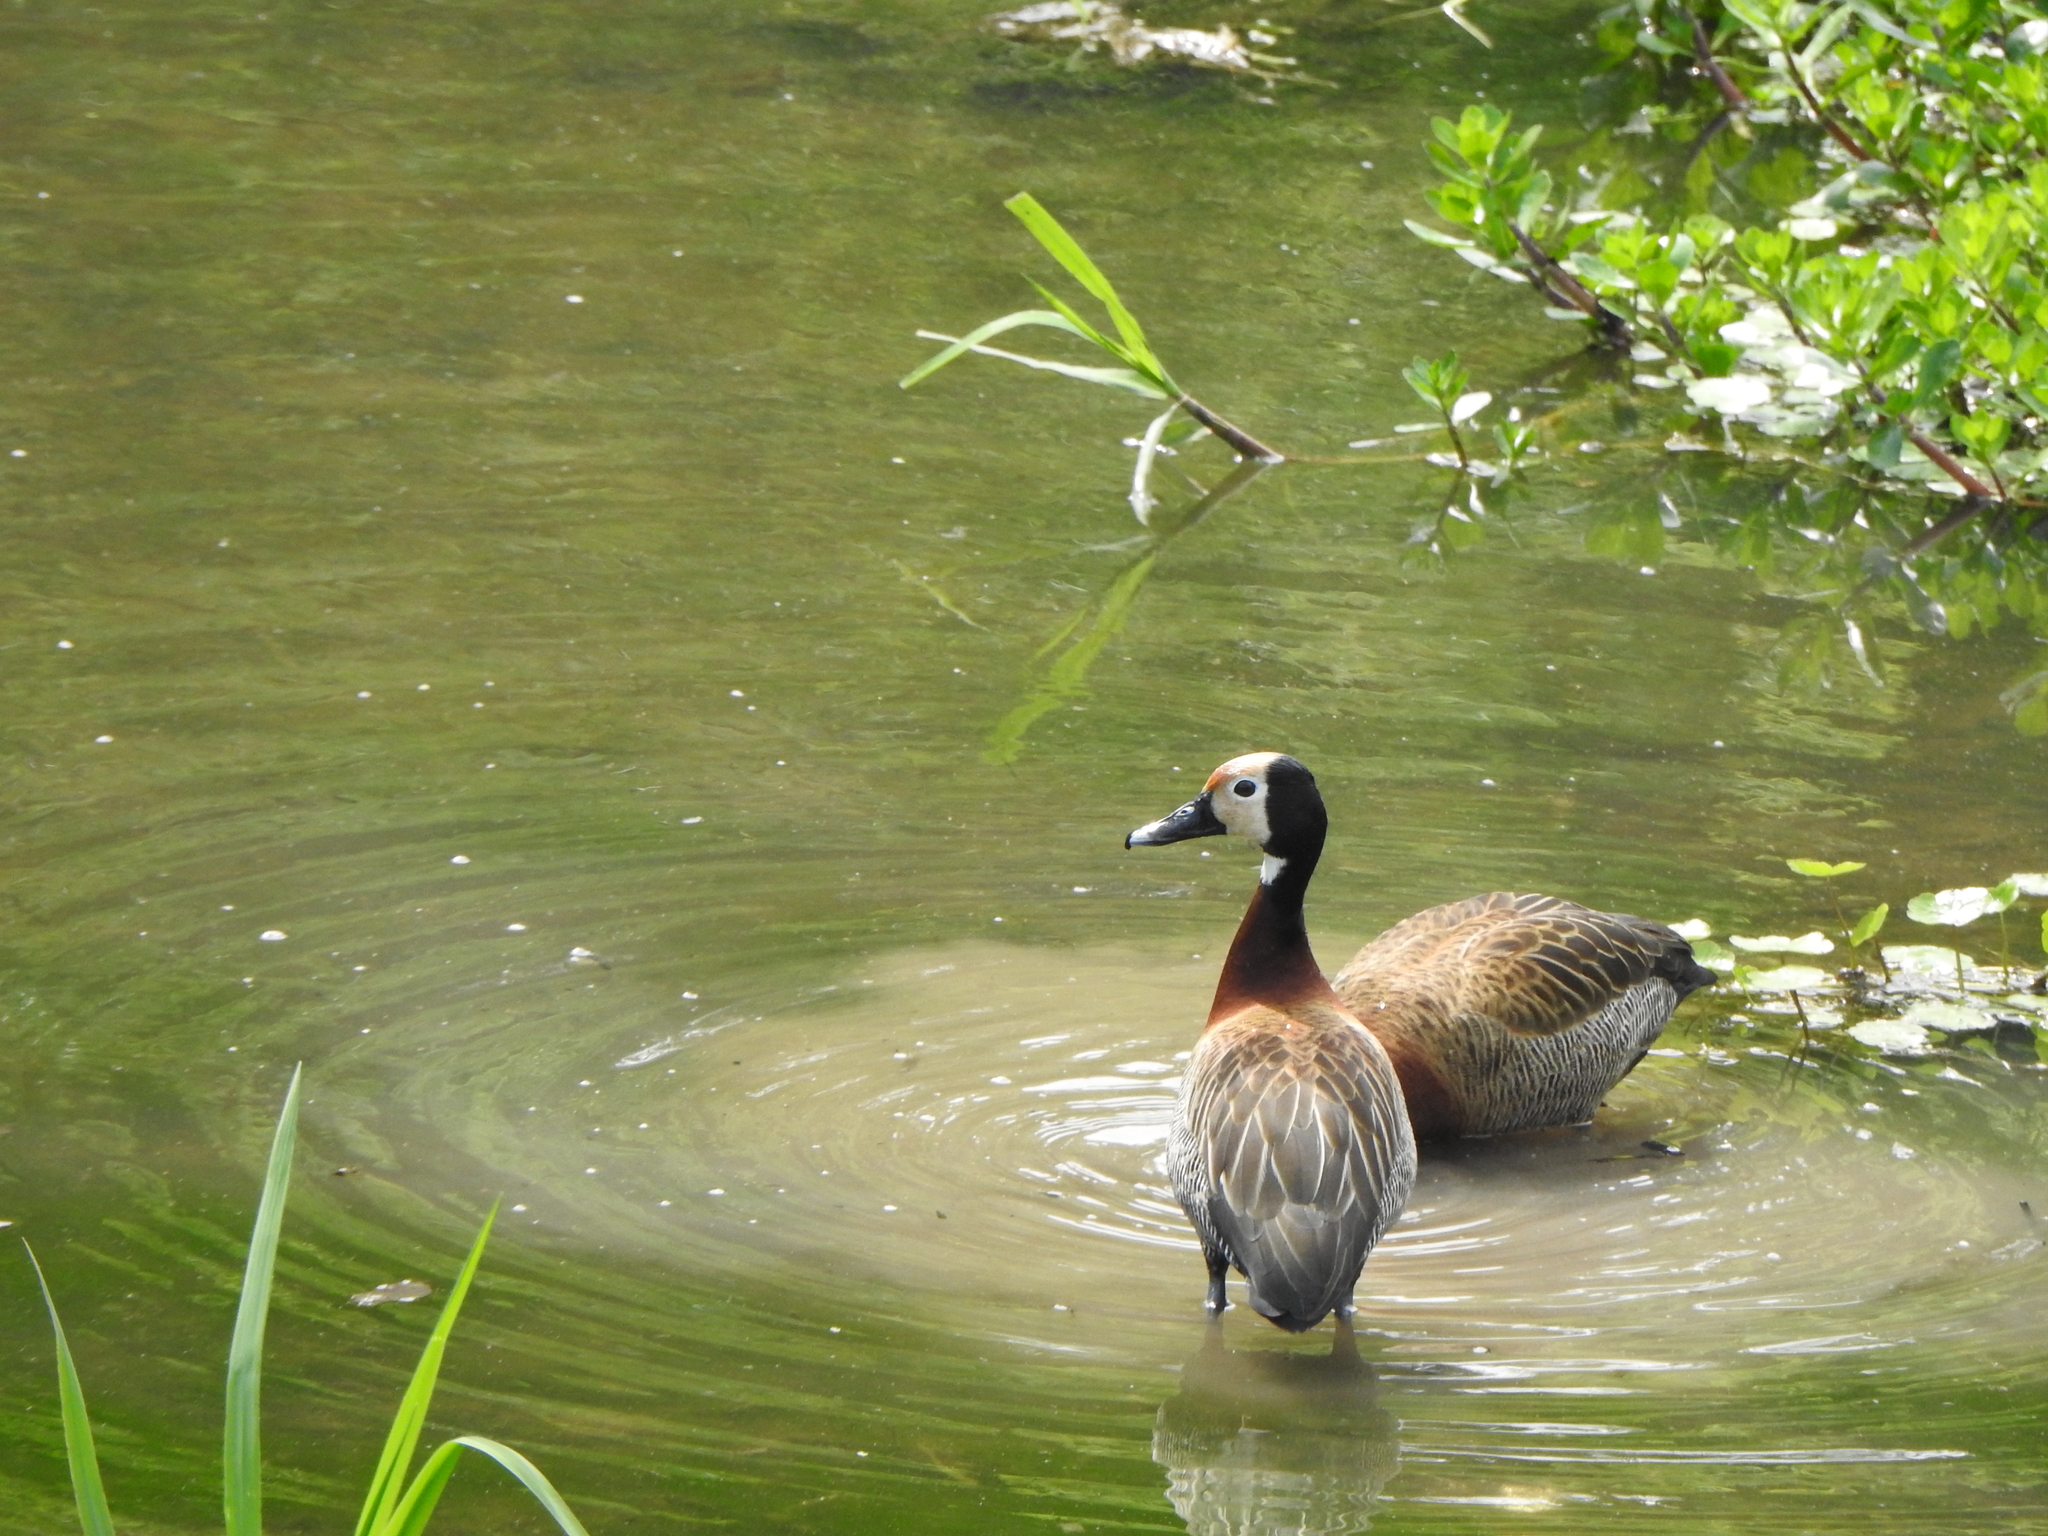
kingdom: Animalia
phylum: Chordata
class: Aves
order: Anseriformes
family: Anatidae
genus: Dendrocygna
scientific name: Dendrocygna viduata
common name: White-faced whistling duck
